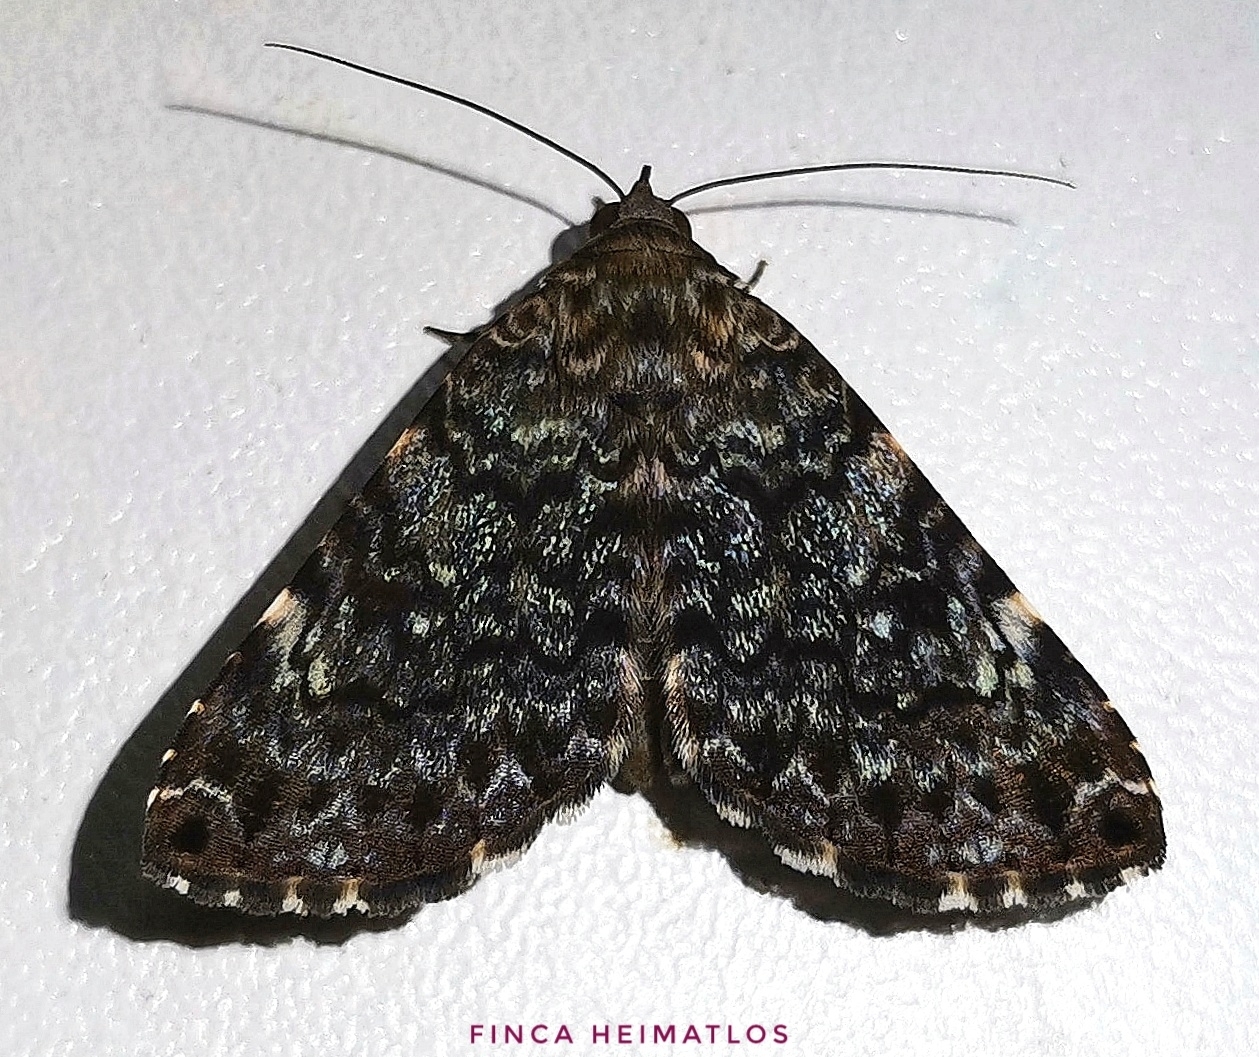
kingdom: Animalia
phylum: Arthropoda
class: Insecta
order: Lepidoptera
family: Erebidae
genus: Acolasis
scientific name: Acolasis Coenipeta polynoe
